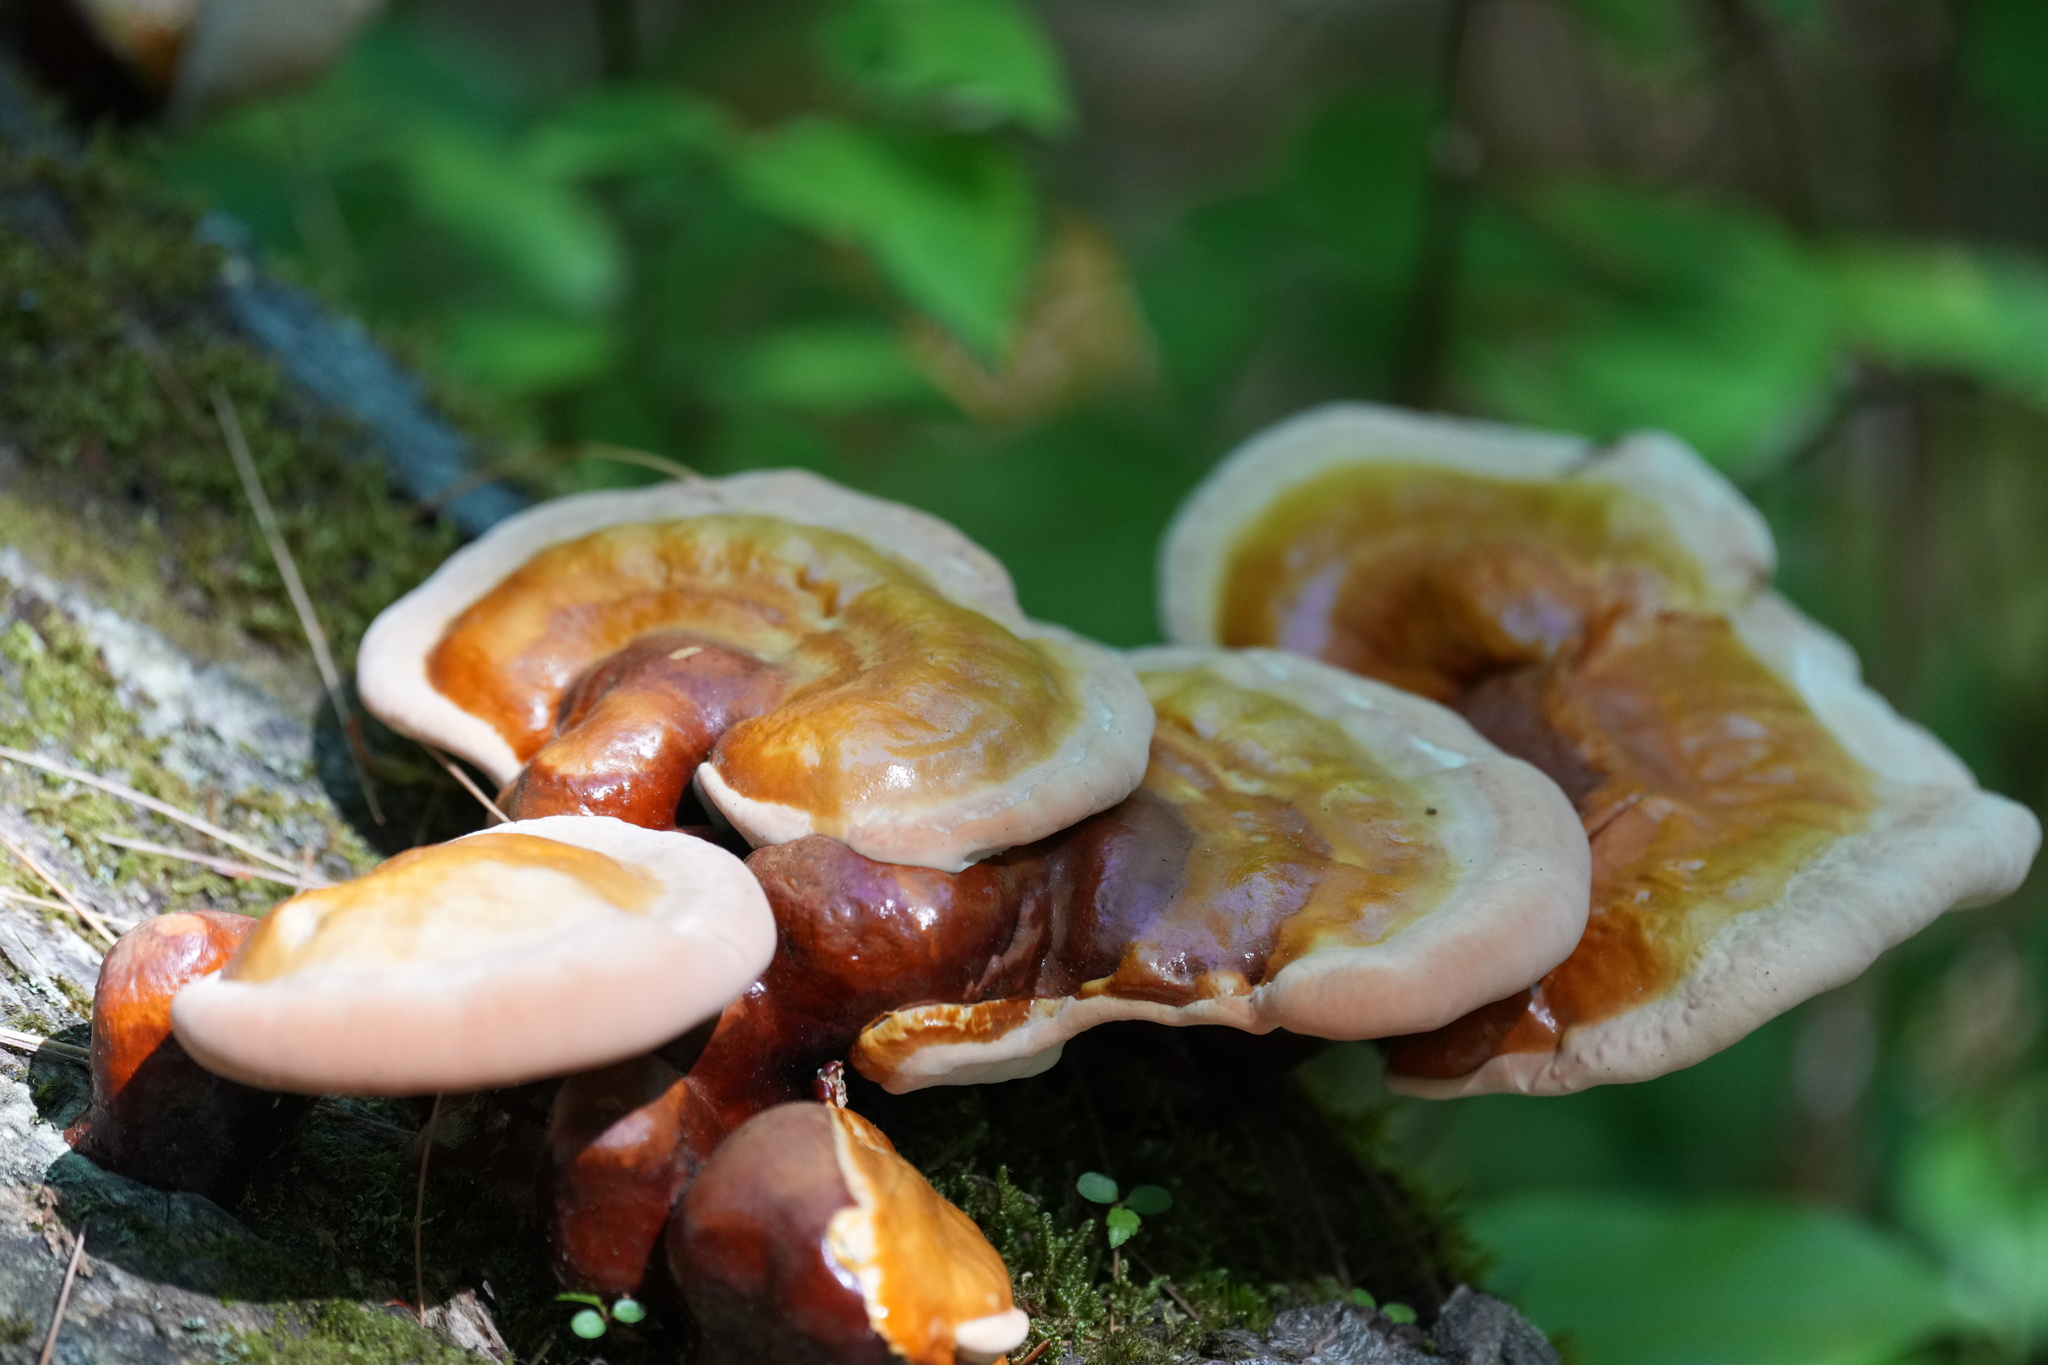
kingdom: Fungi
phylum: Basidiomycota
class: Agaricomycetes
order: Polyporales
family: Polyporaceae
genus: Ganoderma
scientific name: Ganoderma tsugae
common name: Hemlock varnish shelf
